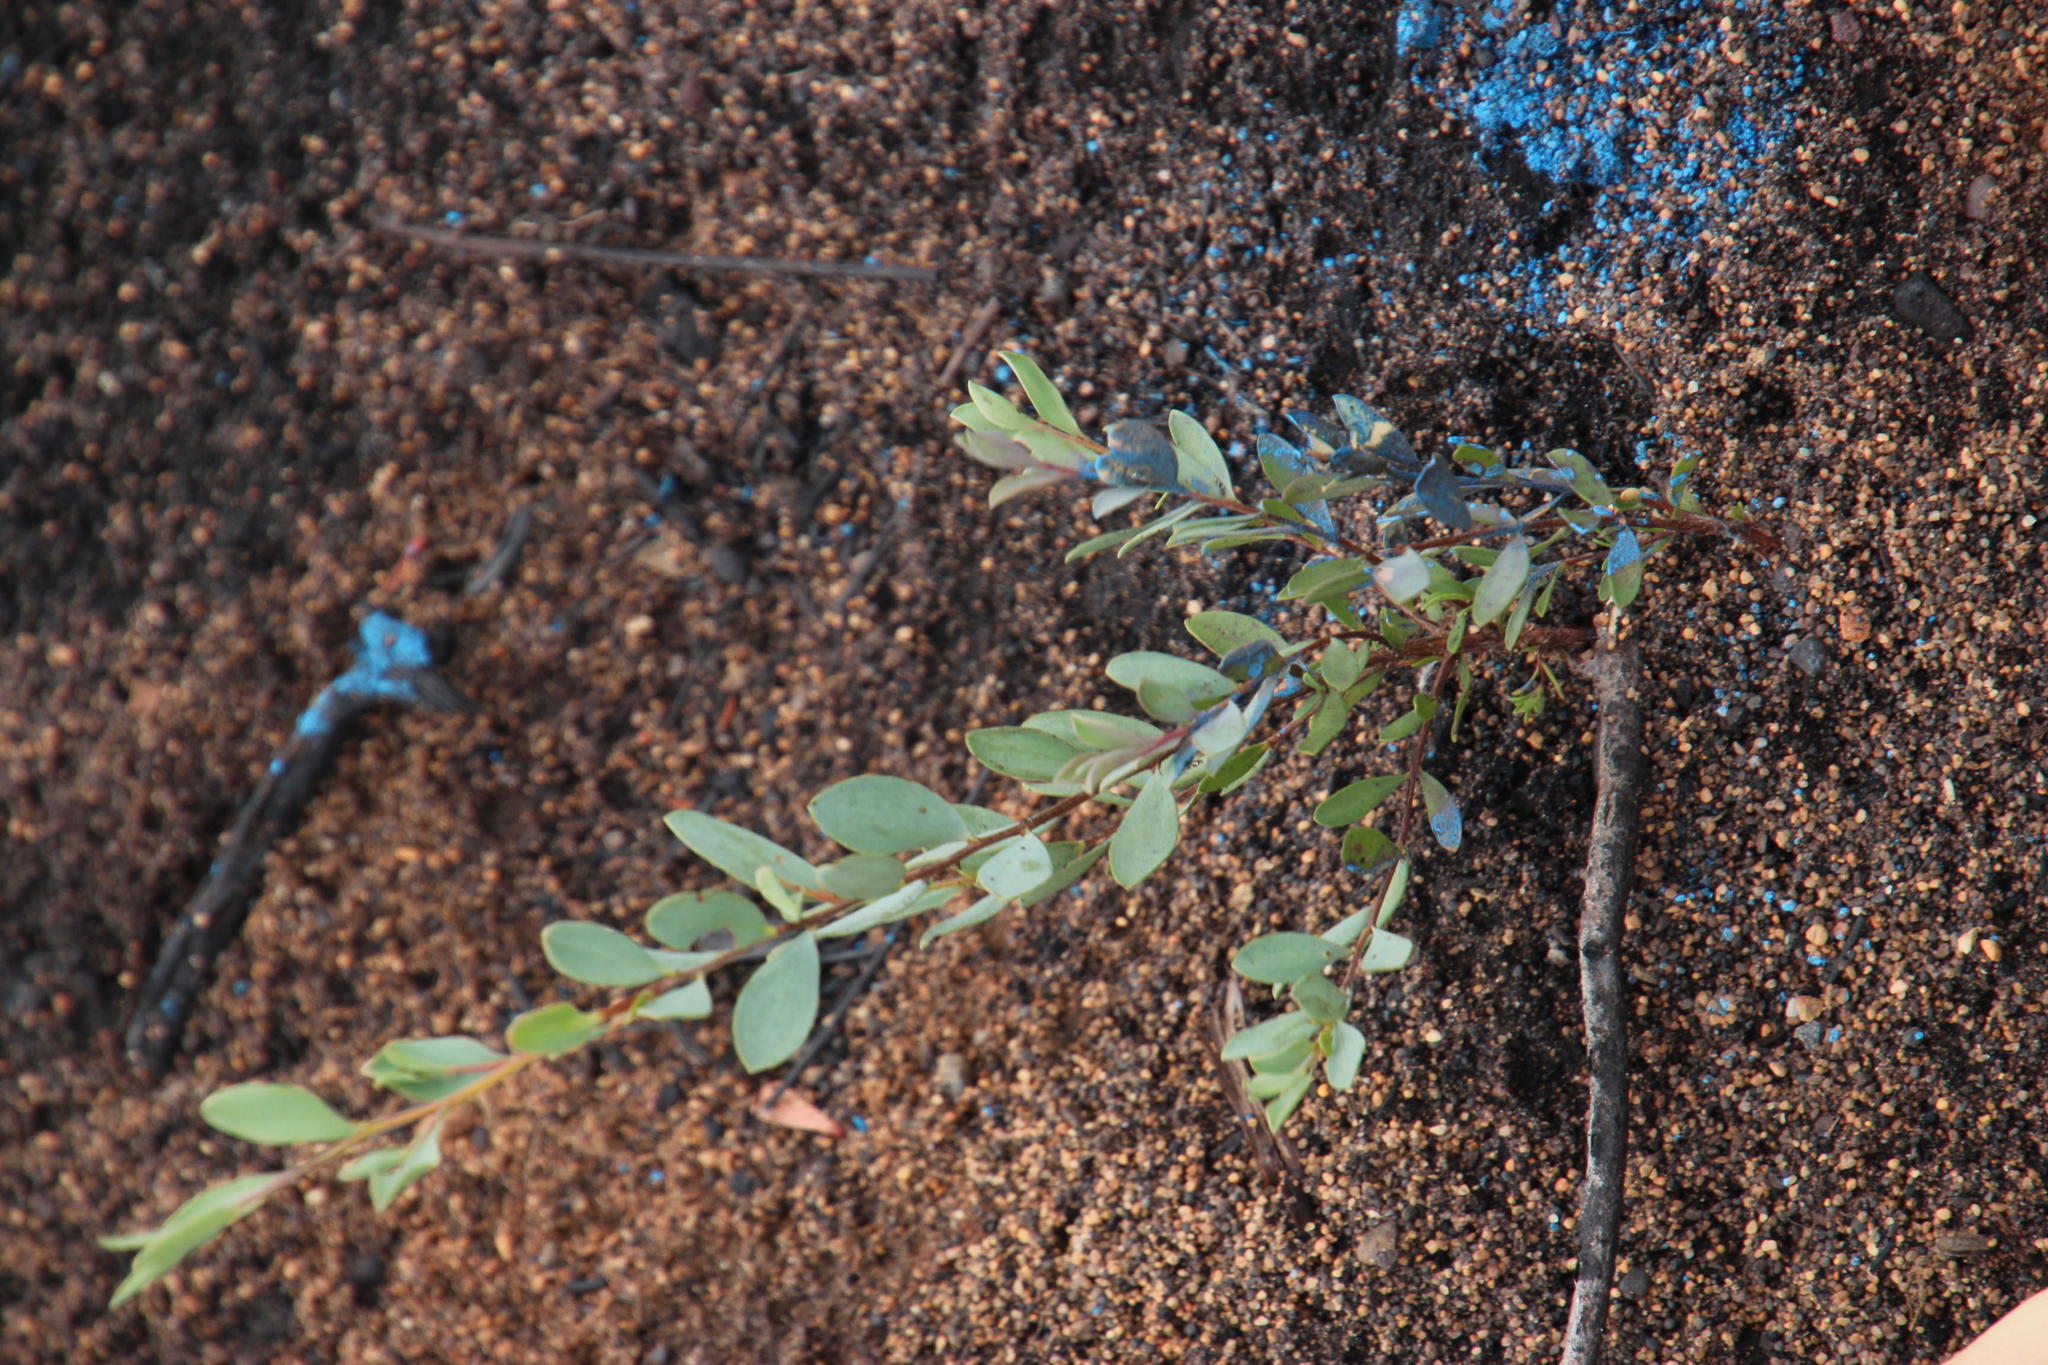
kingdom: Plantae
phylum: Tracheophyta
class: Magnoliopsida
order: Myrtales
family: Myrtaceae
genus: Leptospermum
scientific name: Leptospermum laevigatum
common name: Australian teatree
